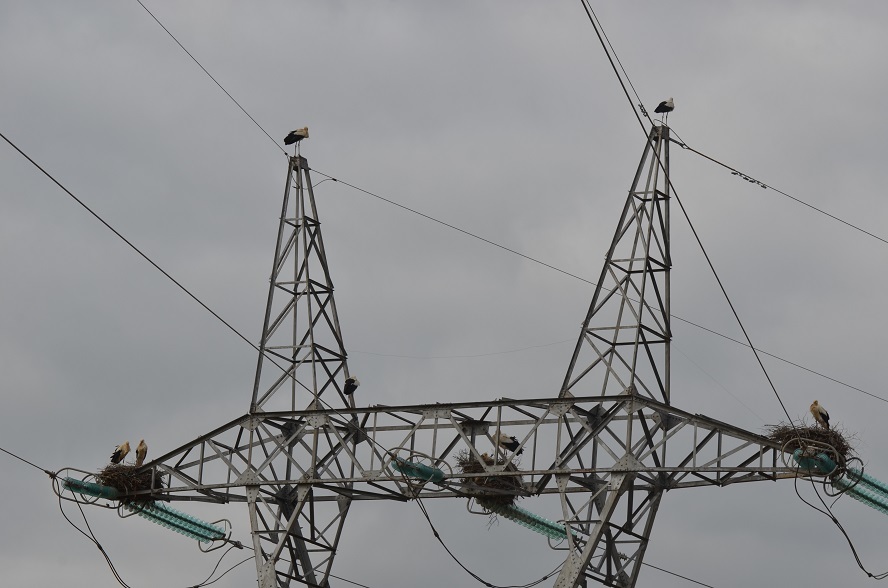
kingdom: Animalia
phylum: Chordata
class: Aves
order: Ciconiiformes
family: Ciconiidae
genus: Ciconia
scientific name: Ciconia ciconia
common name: White stork
